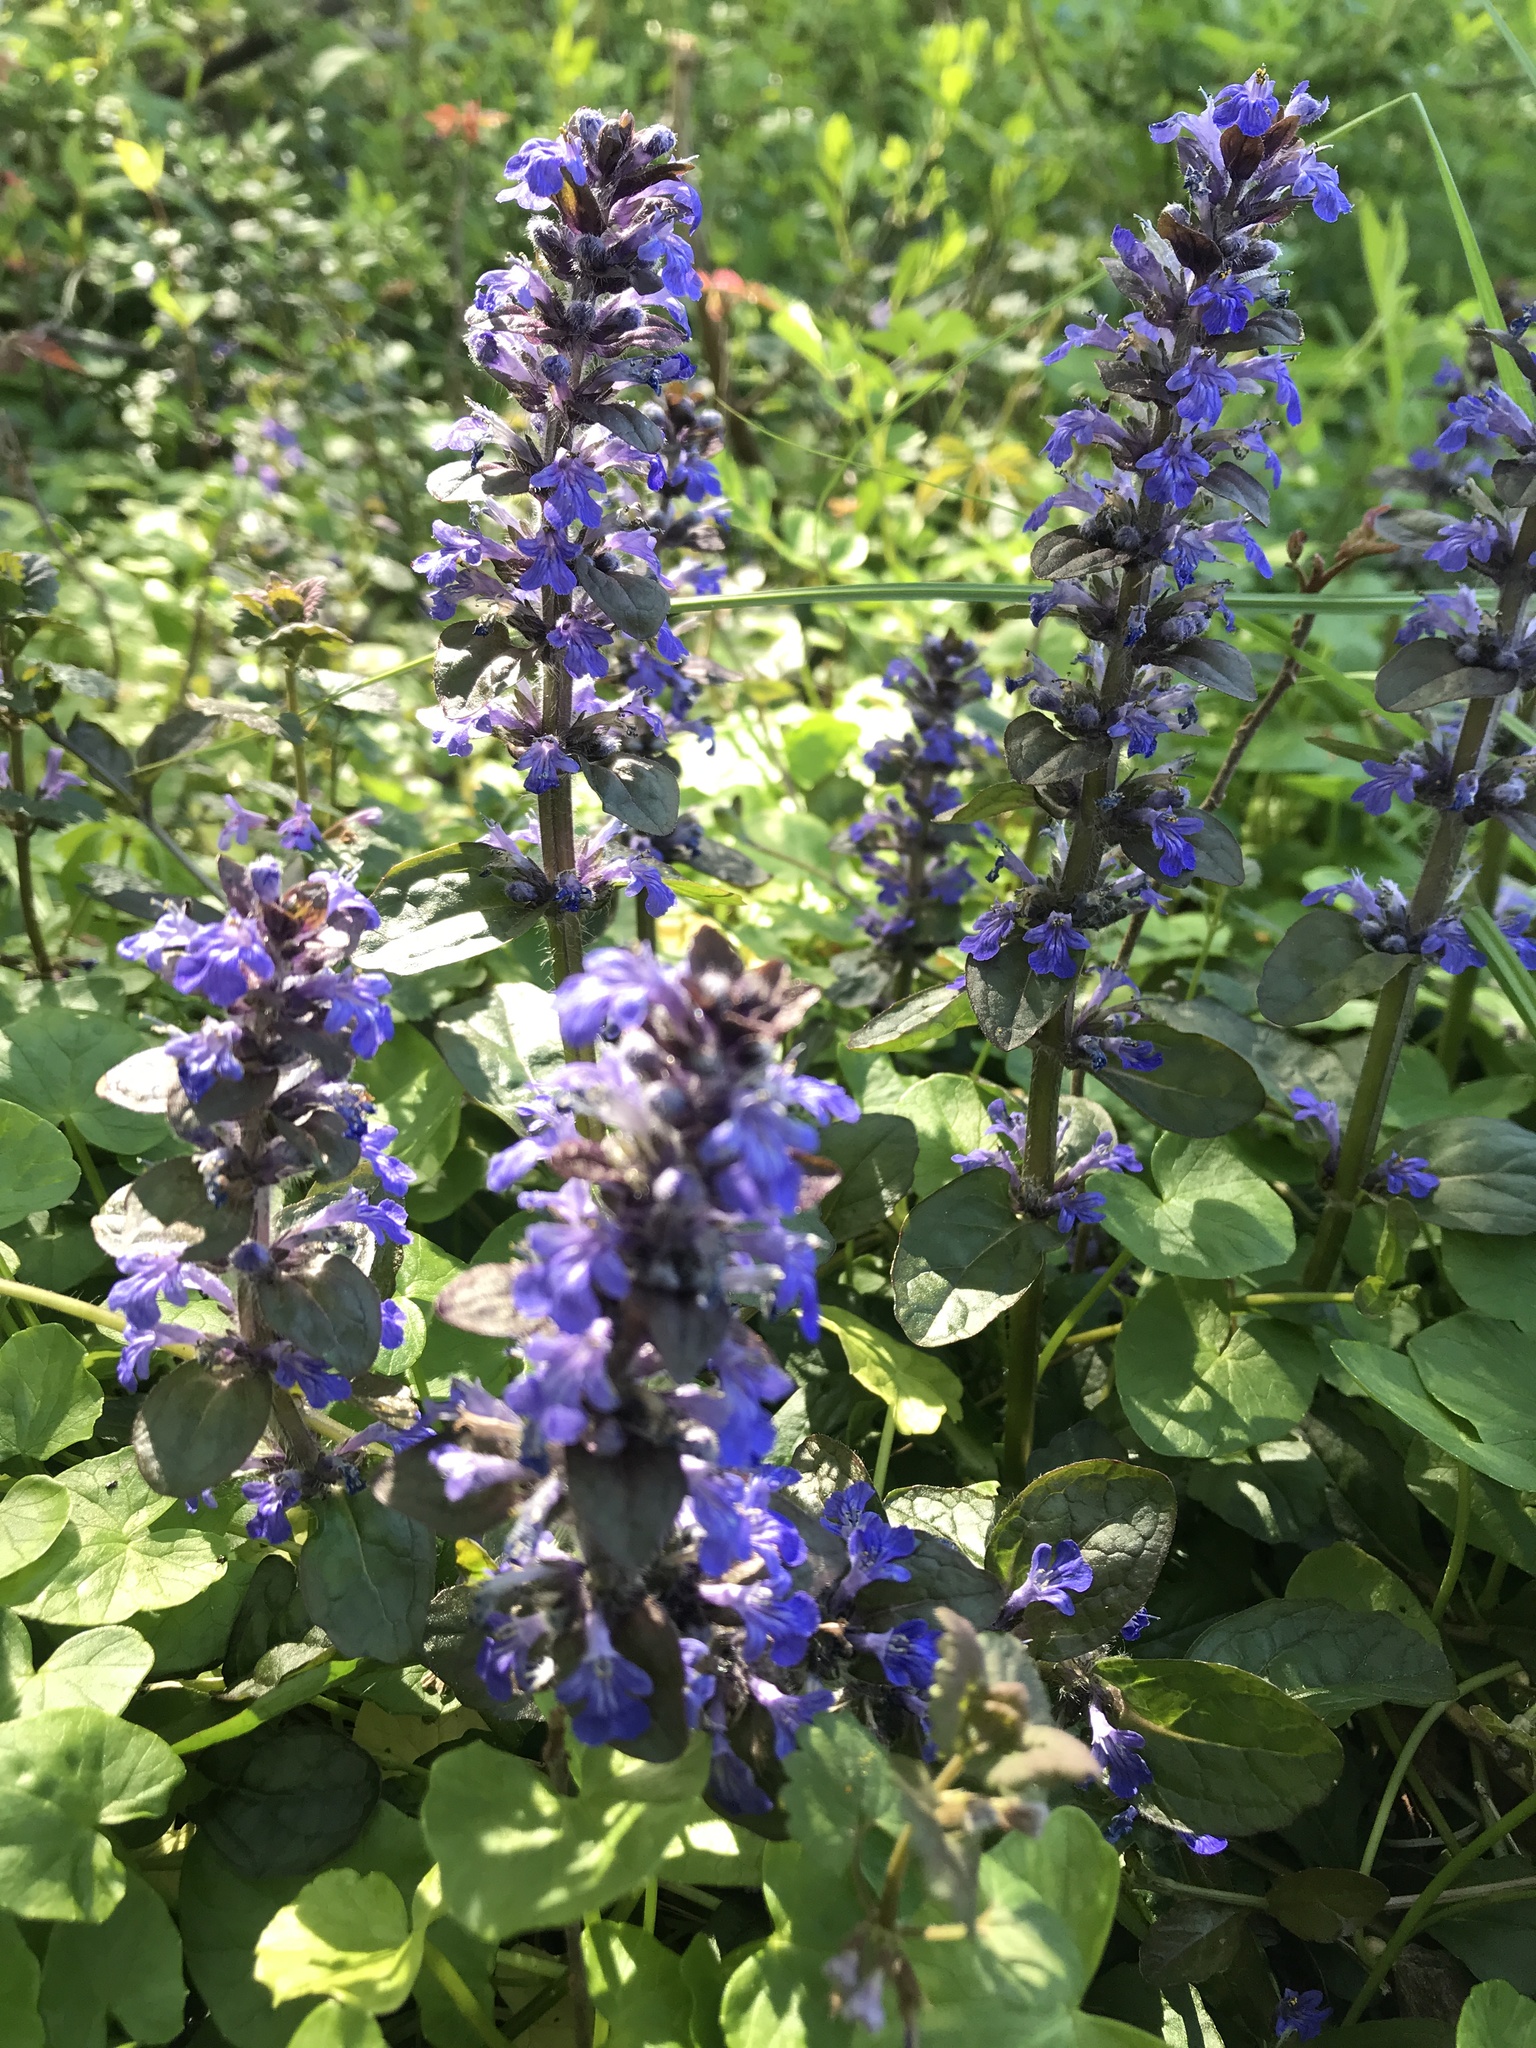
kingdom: Plantae
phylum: Tracheophyta
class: Magnoliopsida
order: Lamiales
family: Lamiaceae
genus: Ajuga
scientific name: Ajuga reptans
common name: Bugle
